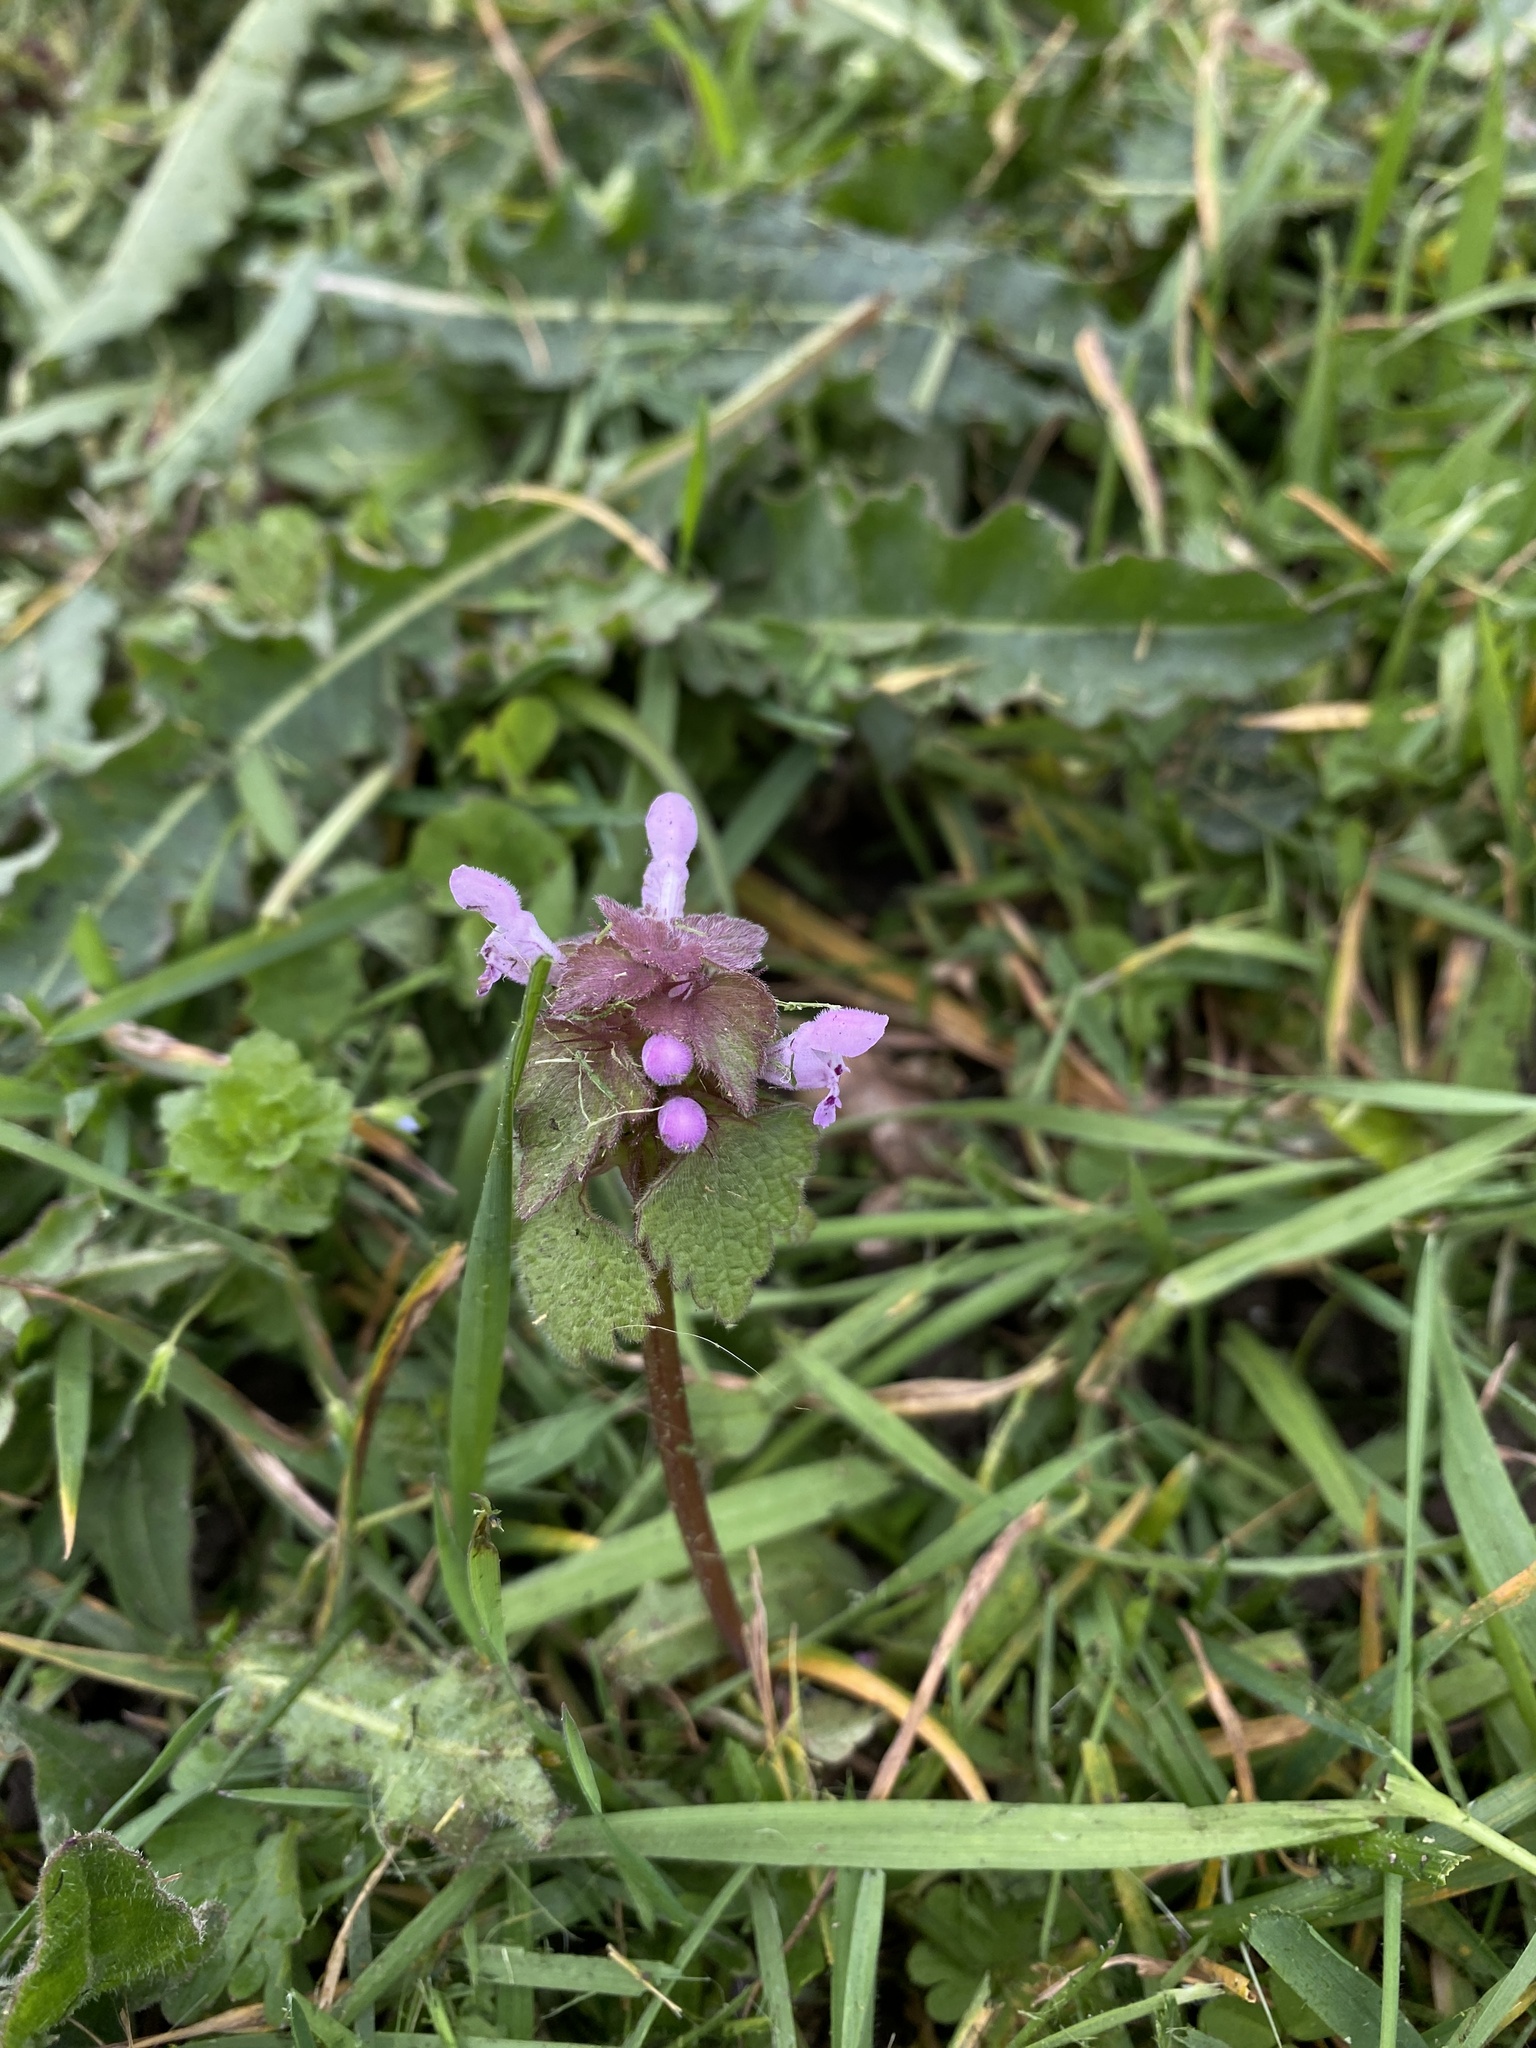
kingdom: Plantae
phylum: Tracheophyta
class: Magnoliopsida
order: Lamiales
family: Lamiaceae
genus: Lamium
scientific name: Lamium purpureum
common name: Red dead-nettle
